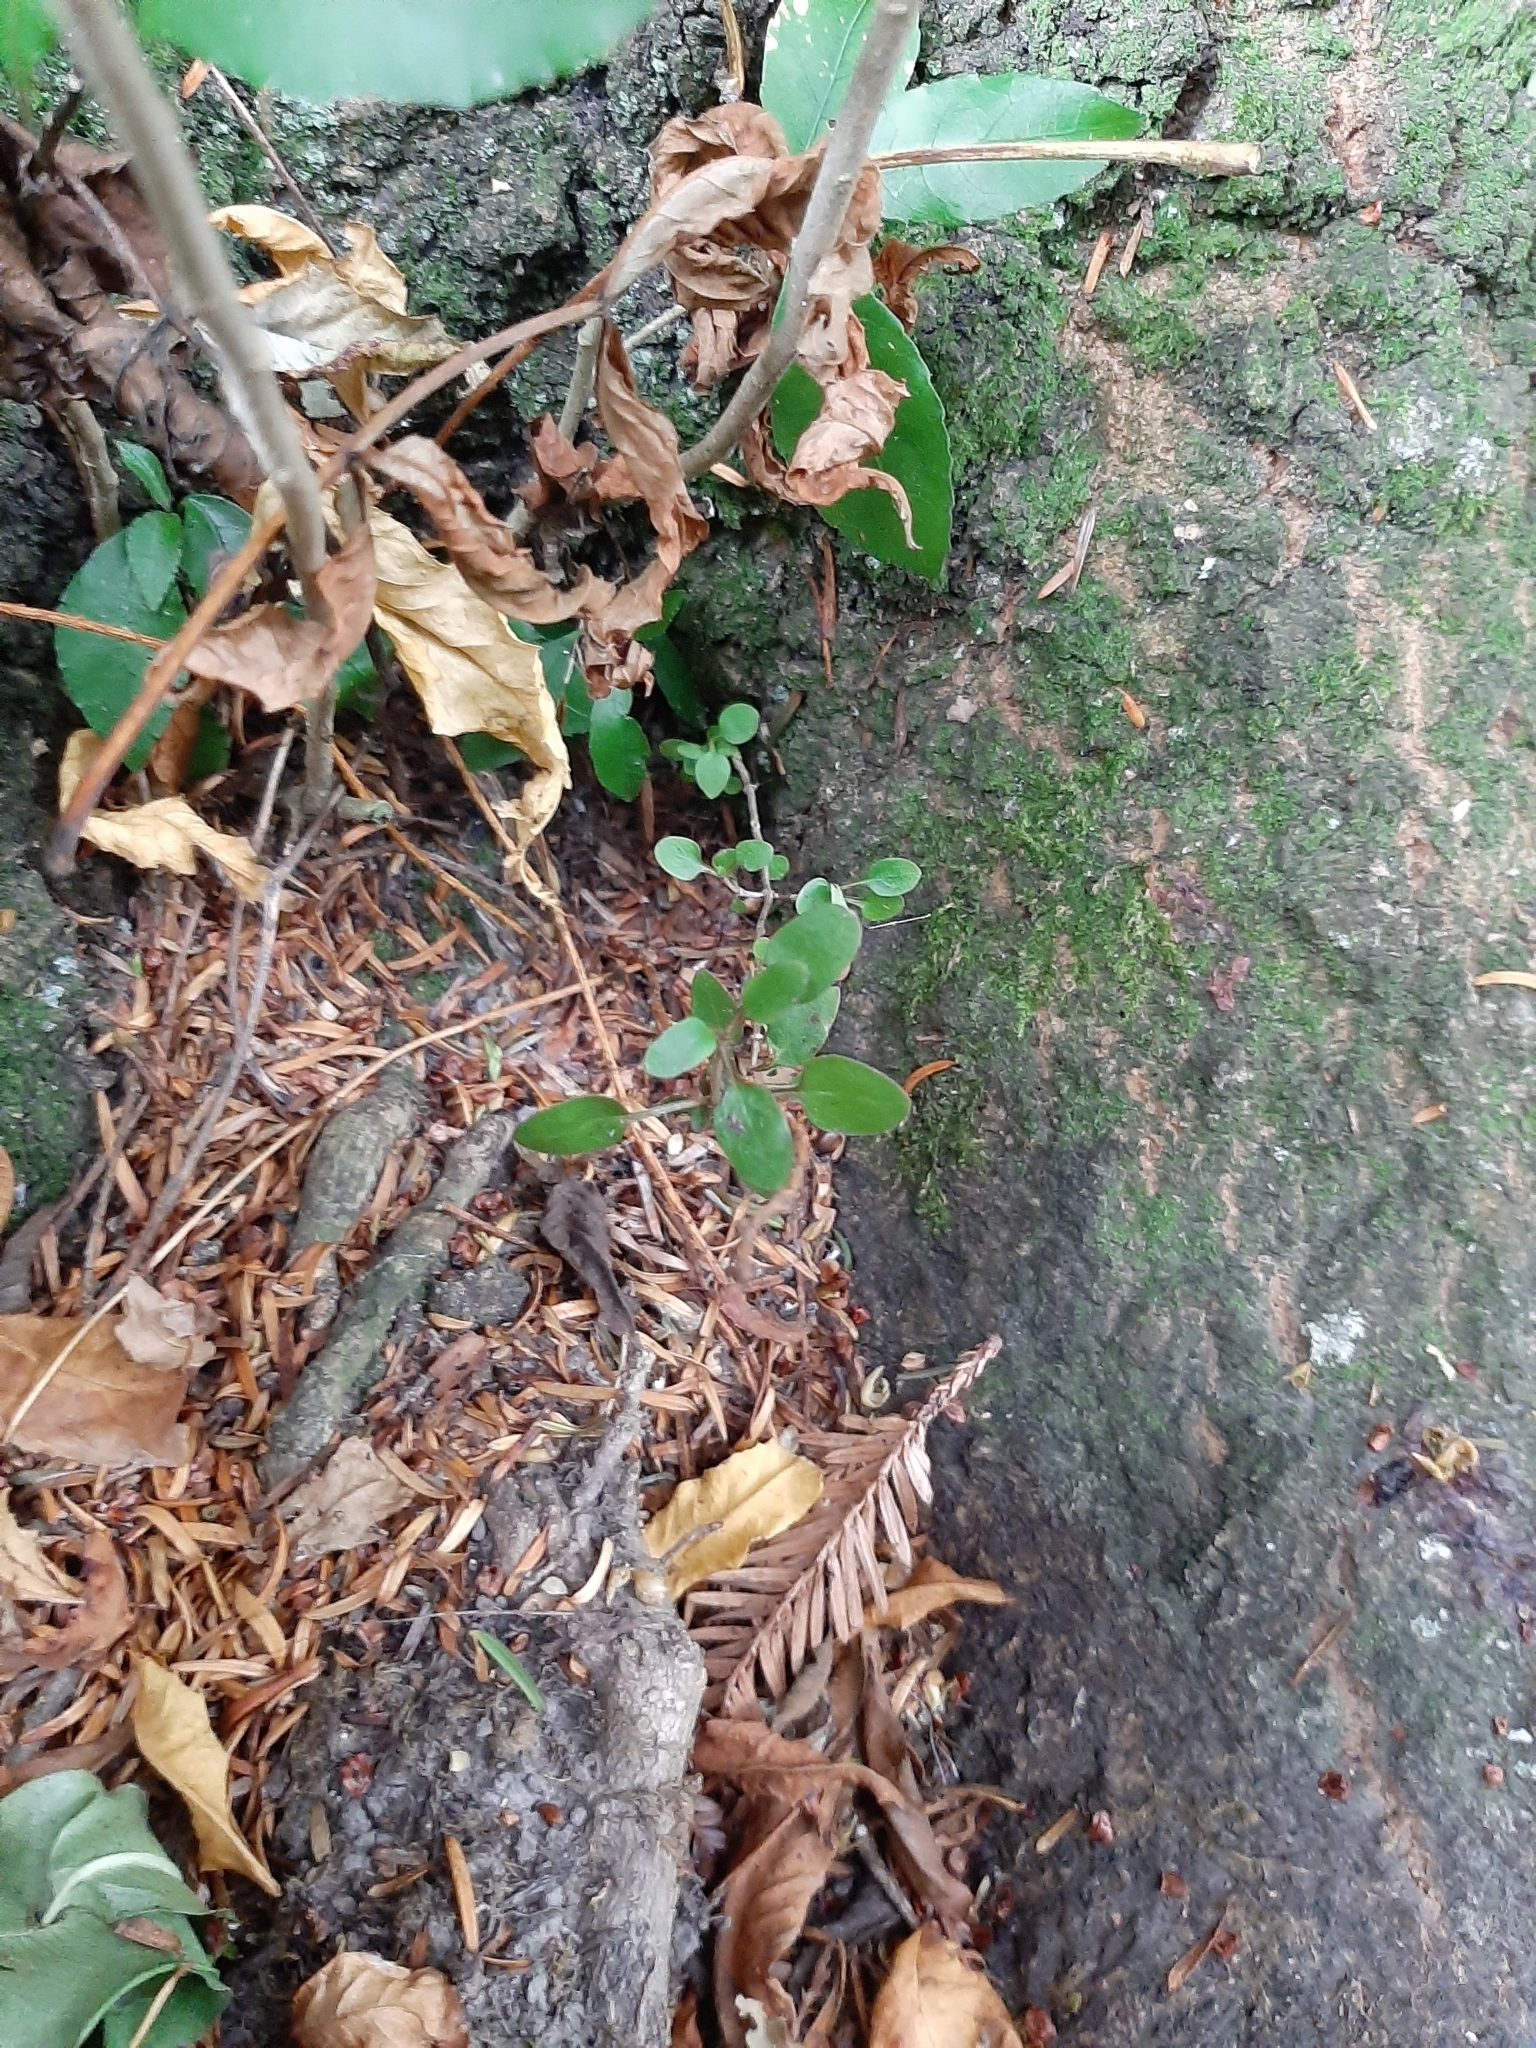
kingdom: Plantae
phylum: Tracheophyta
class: Magnoliopsida
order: Gentianales
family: Rubiaceae
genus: Coprosma
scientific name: Coprosma propinqua
